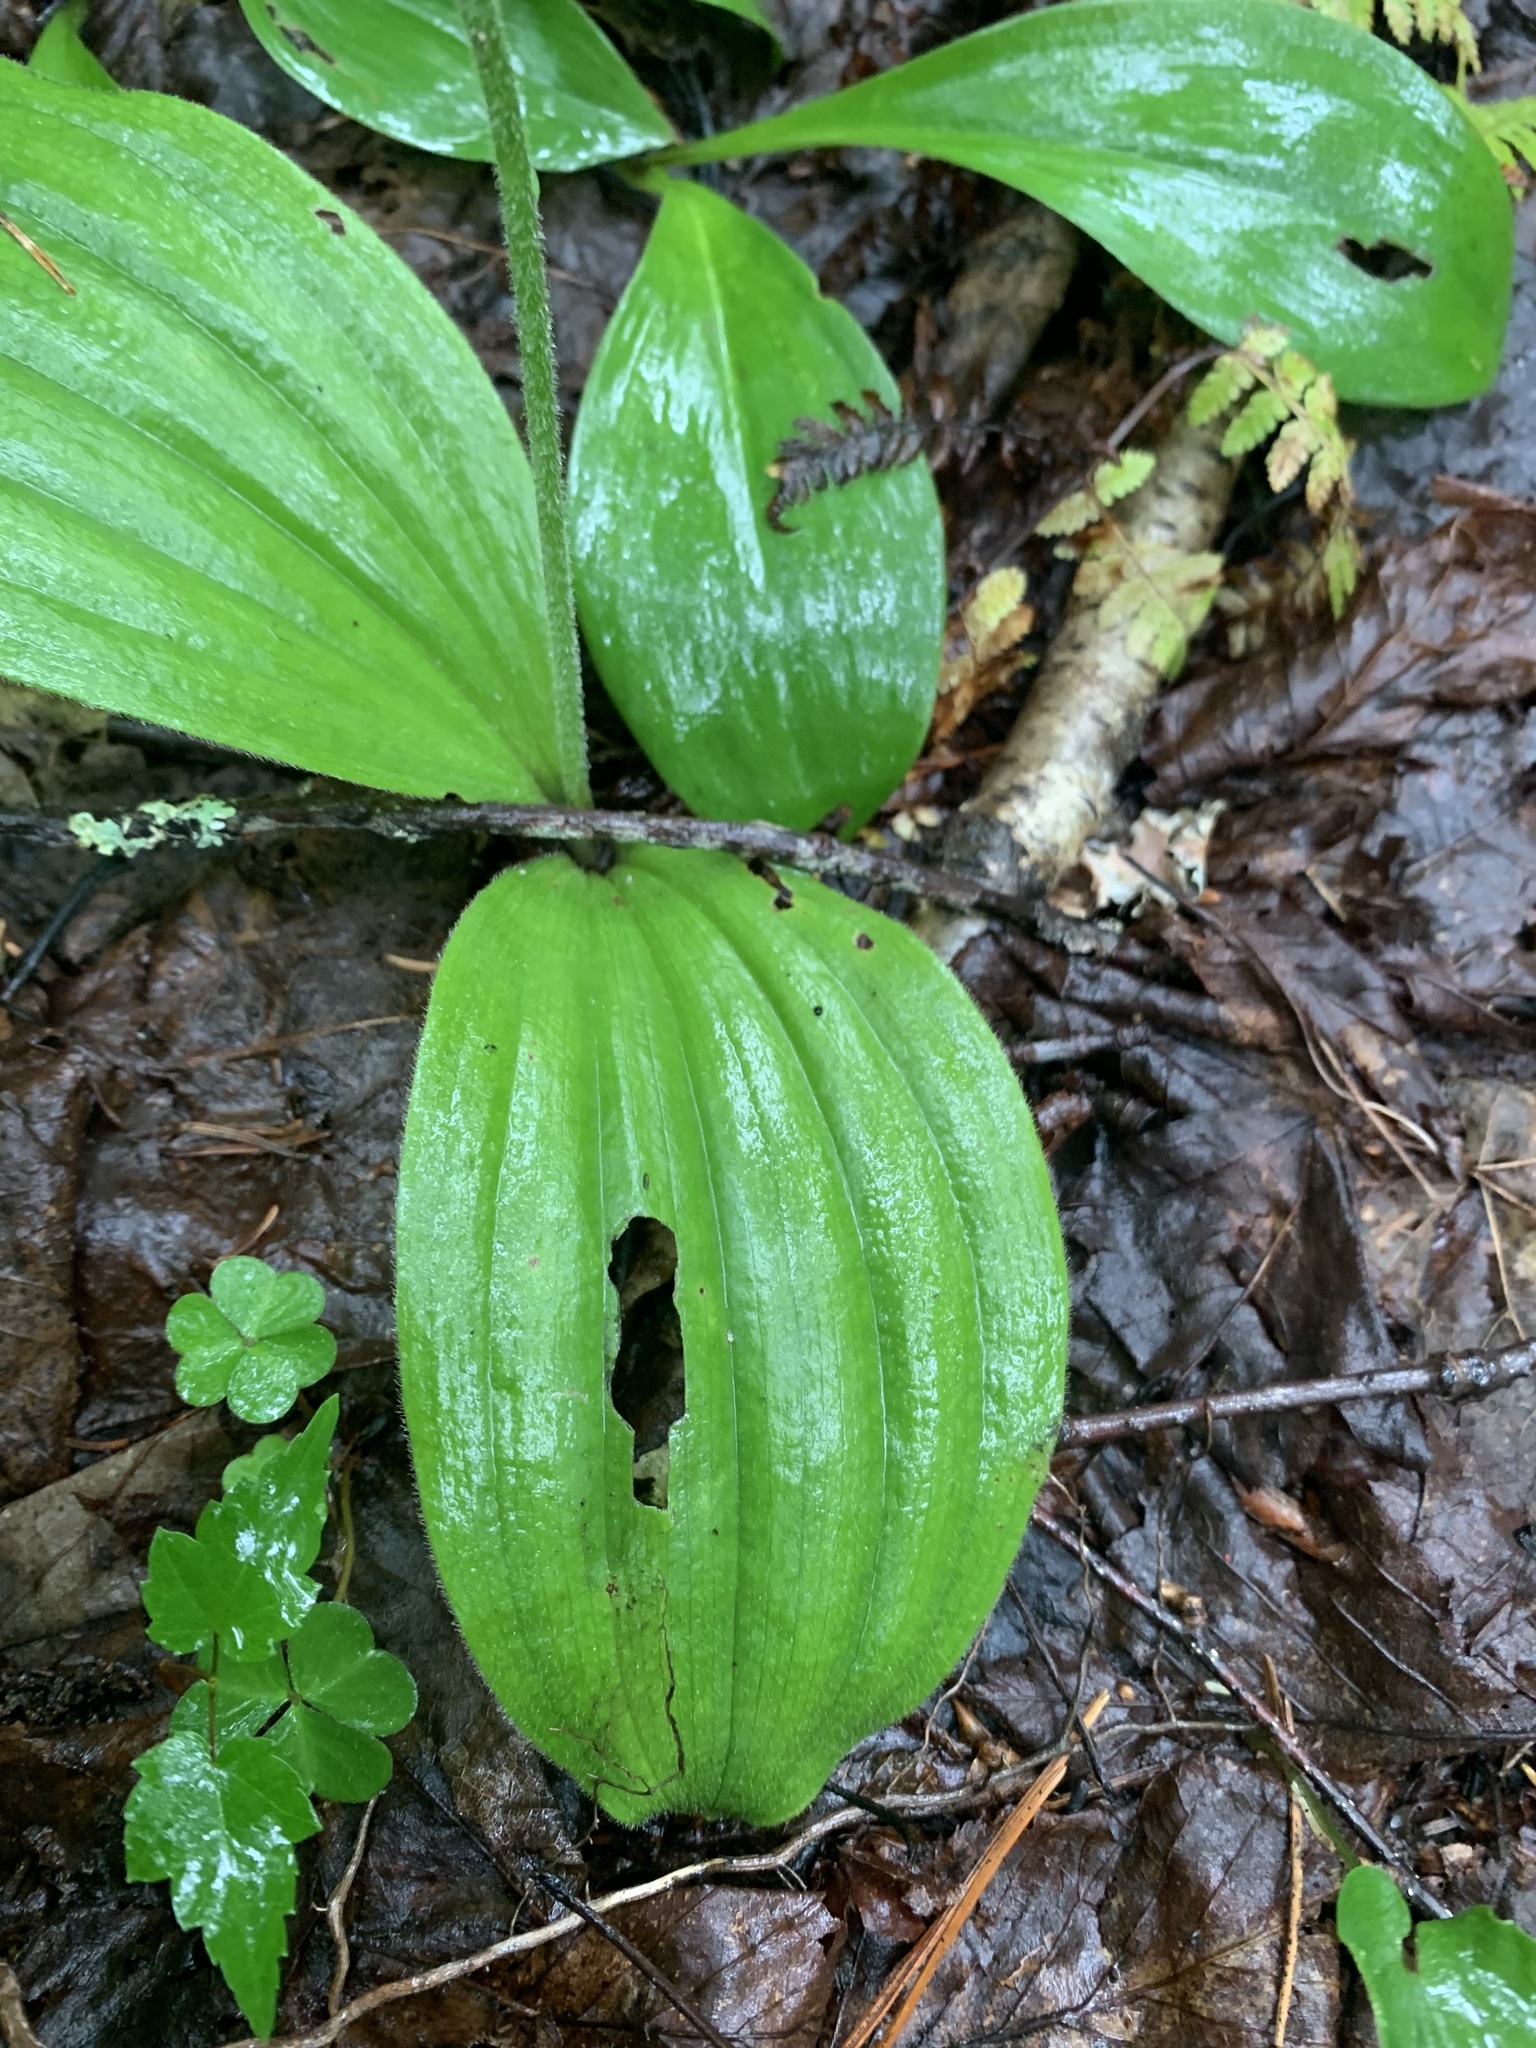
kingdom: Plantae
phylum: Tracheophyta
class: Liliopsida
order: Asparagales
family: Orchidaceae
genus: Cypripedium
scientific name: Cypripedium acaule
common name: Pink lady's-slipper
